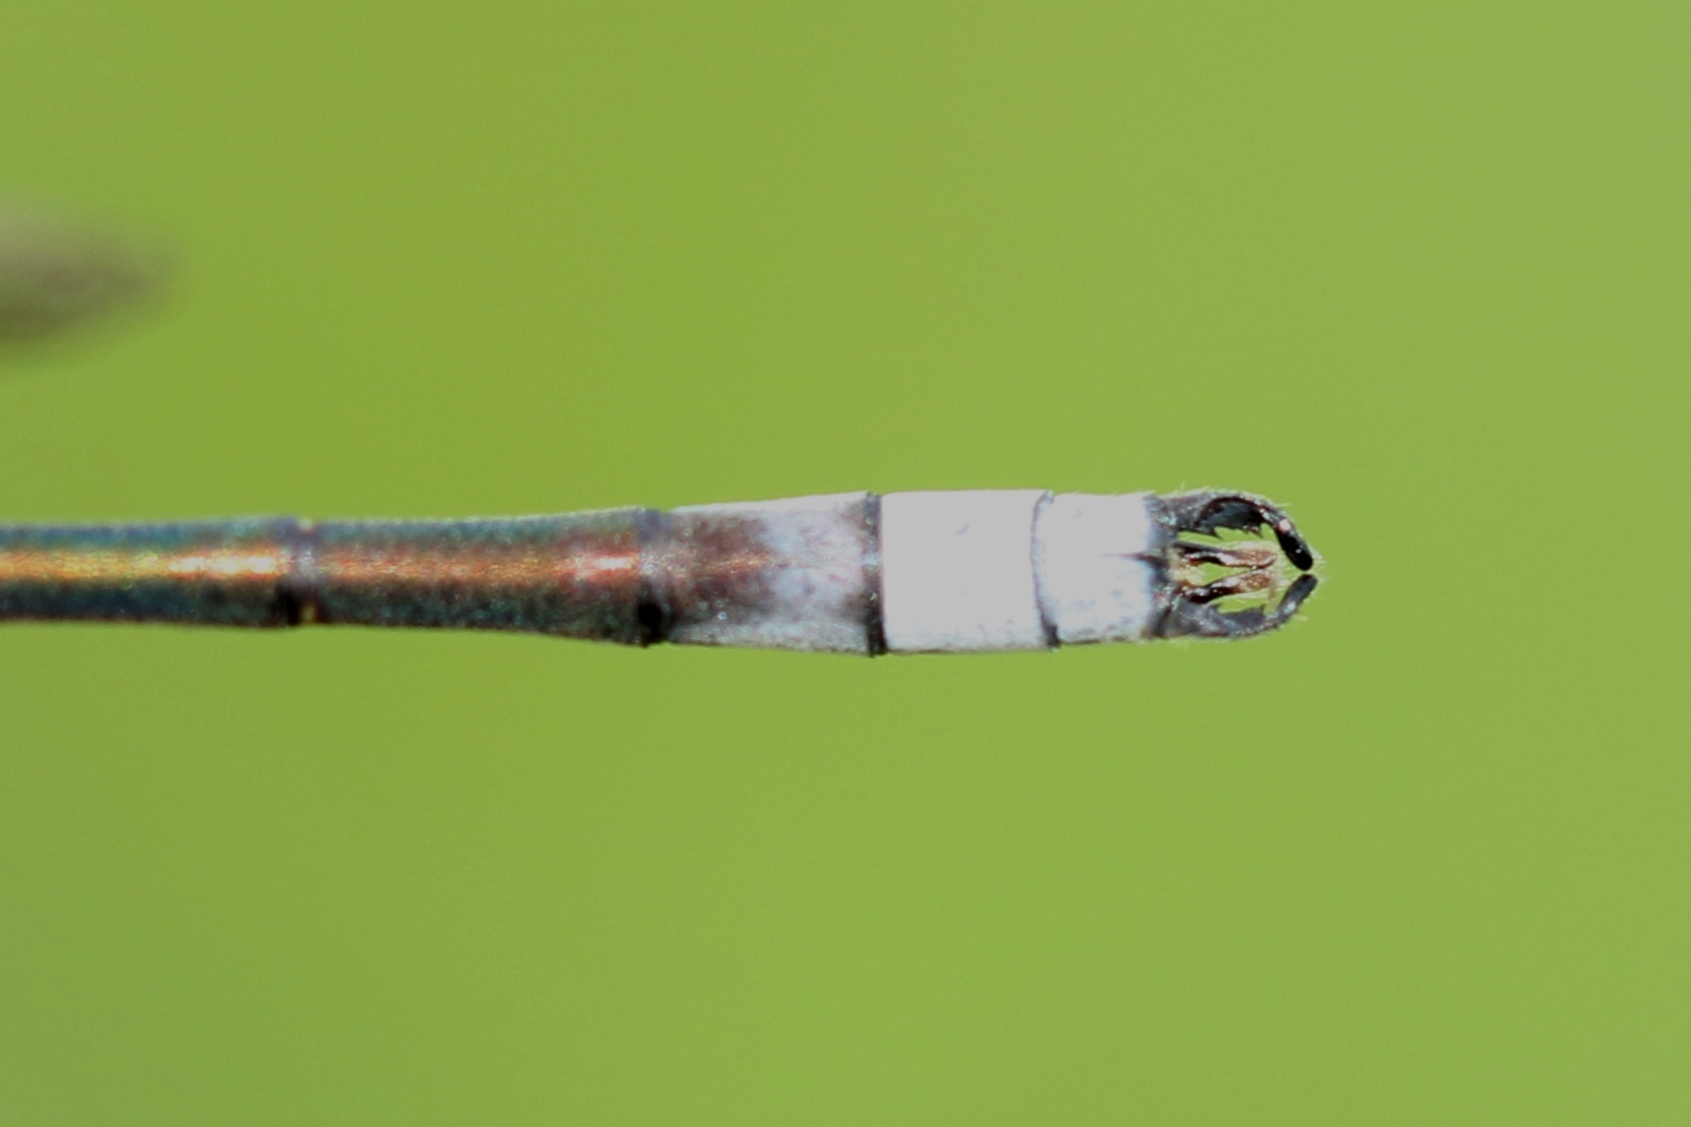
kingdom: Animalia
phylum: Arthropoda
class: Insecta
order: Odonata
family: Lestidae
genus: Lestes
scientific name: Lestes disjunctus
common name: Northern spreadwing
